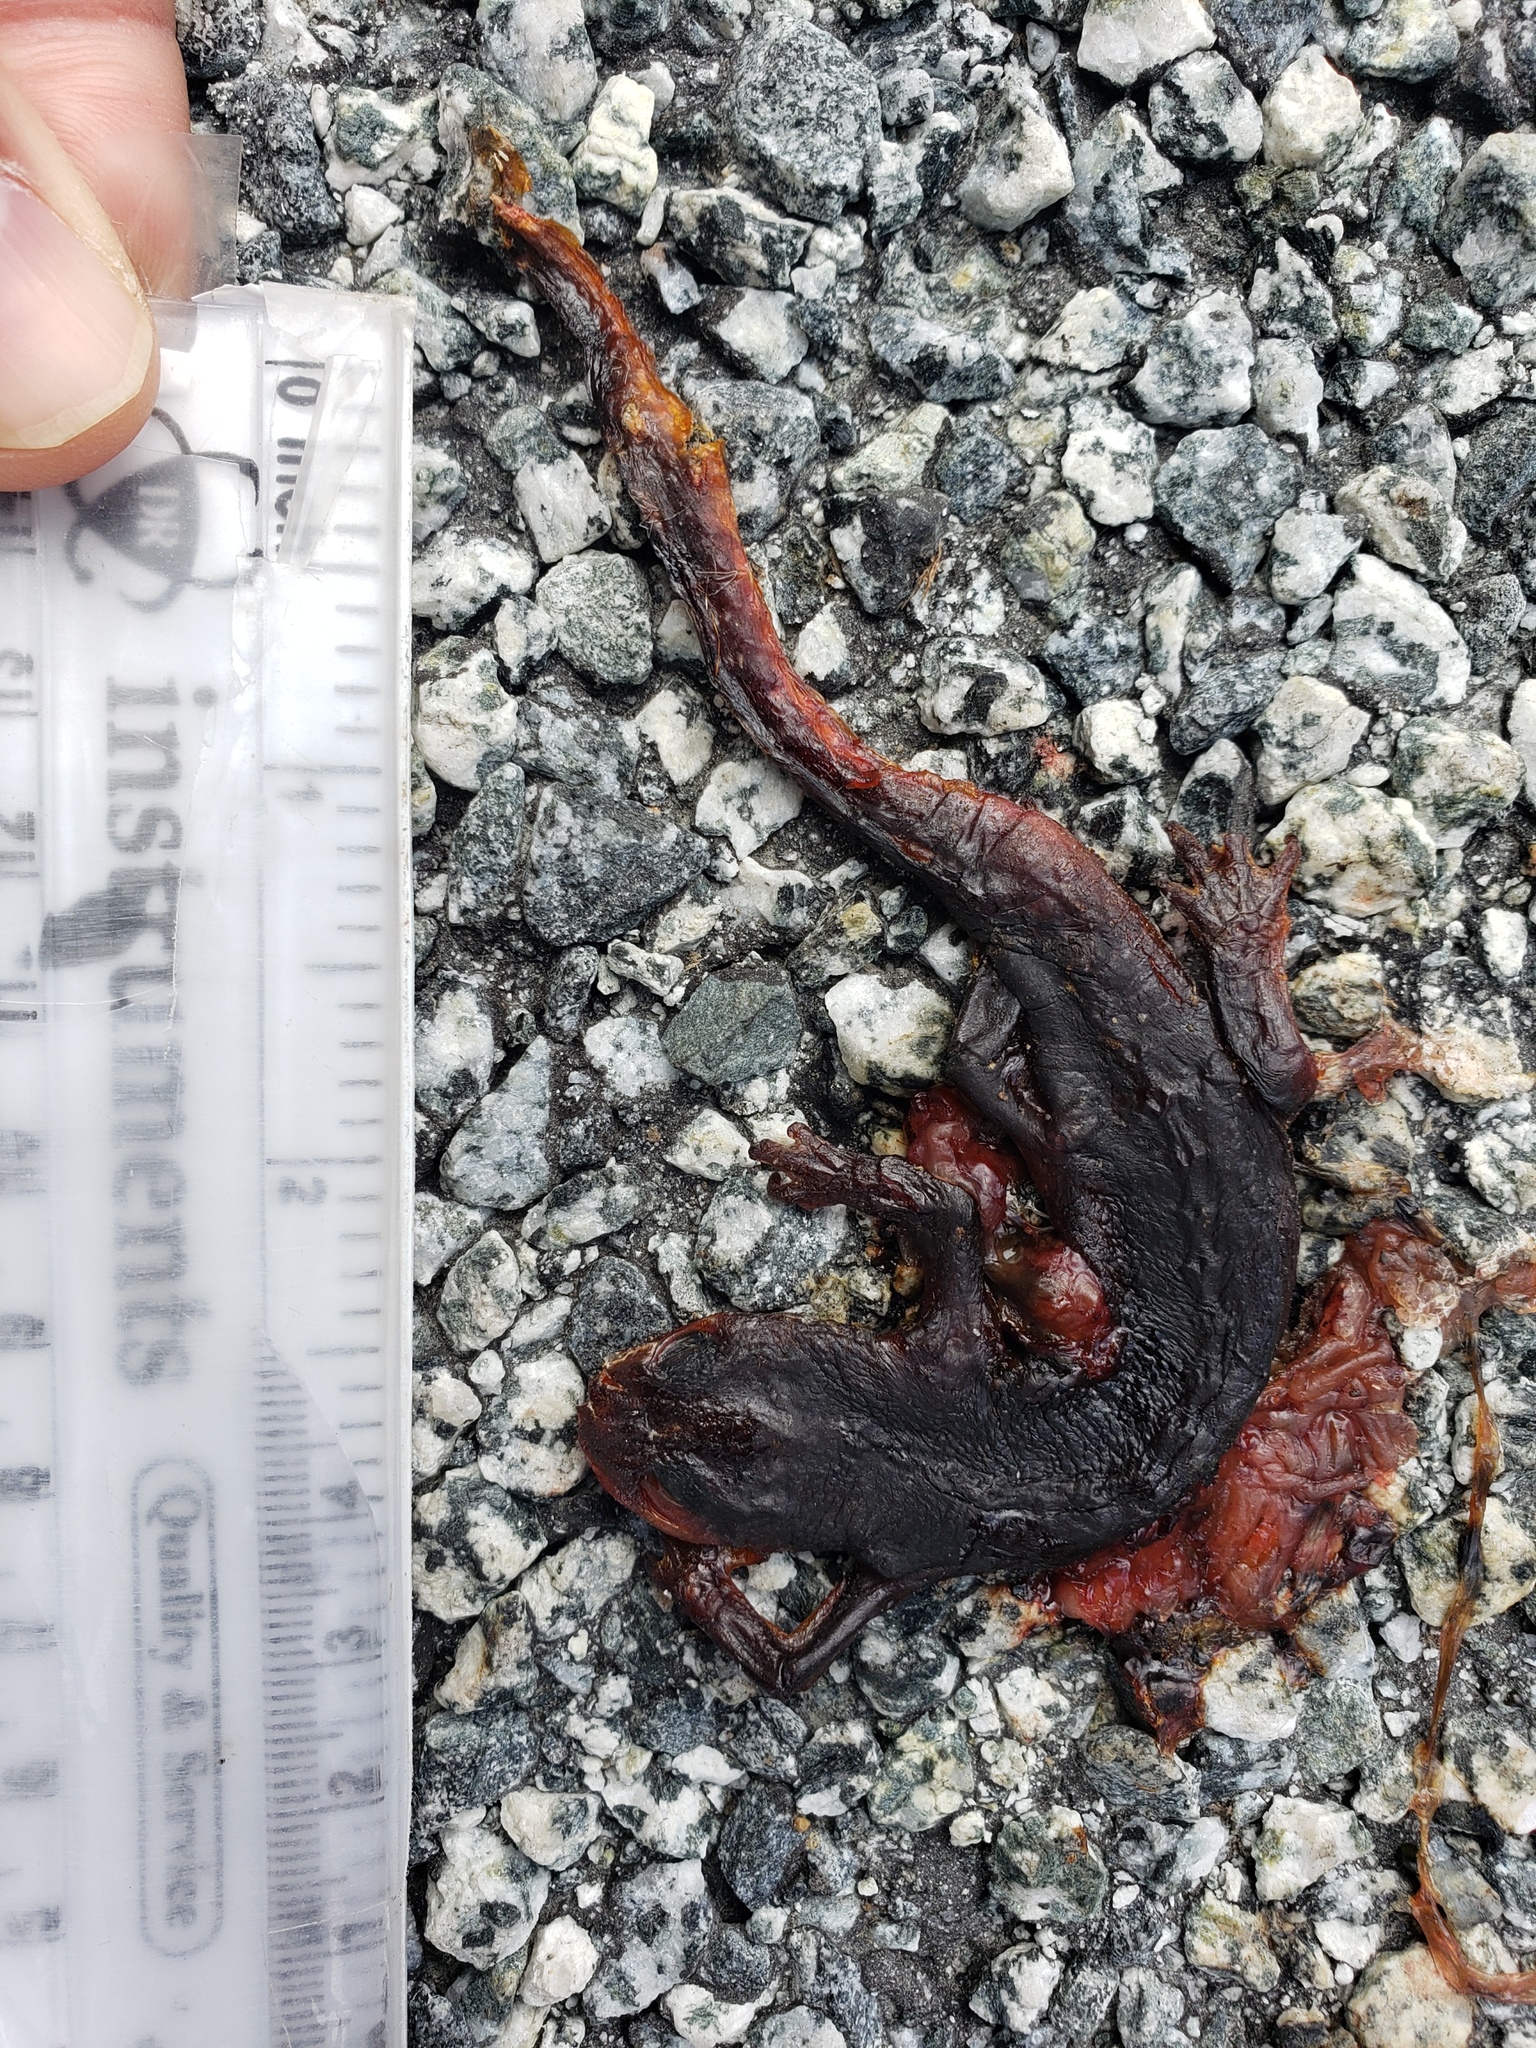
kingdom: Animalia
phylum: Chordata
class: Amphibia
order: Caudata
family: Salamandridae
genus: Taricha
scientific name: Taricha
